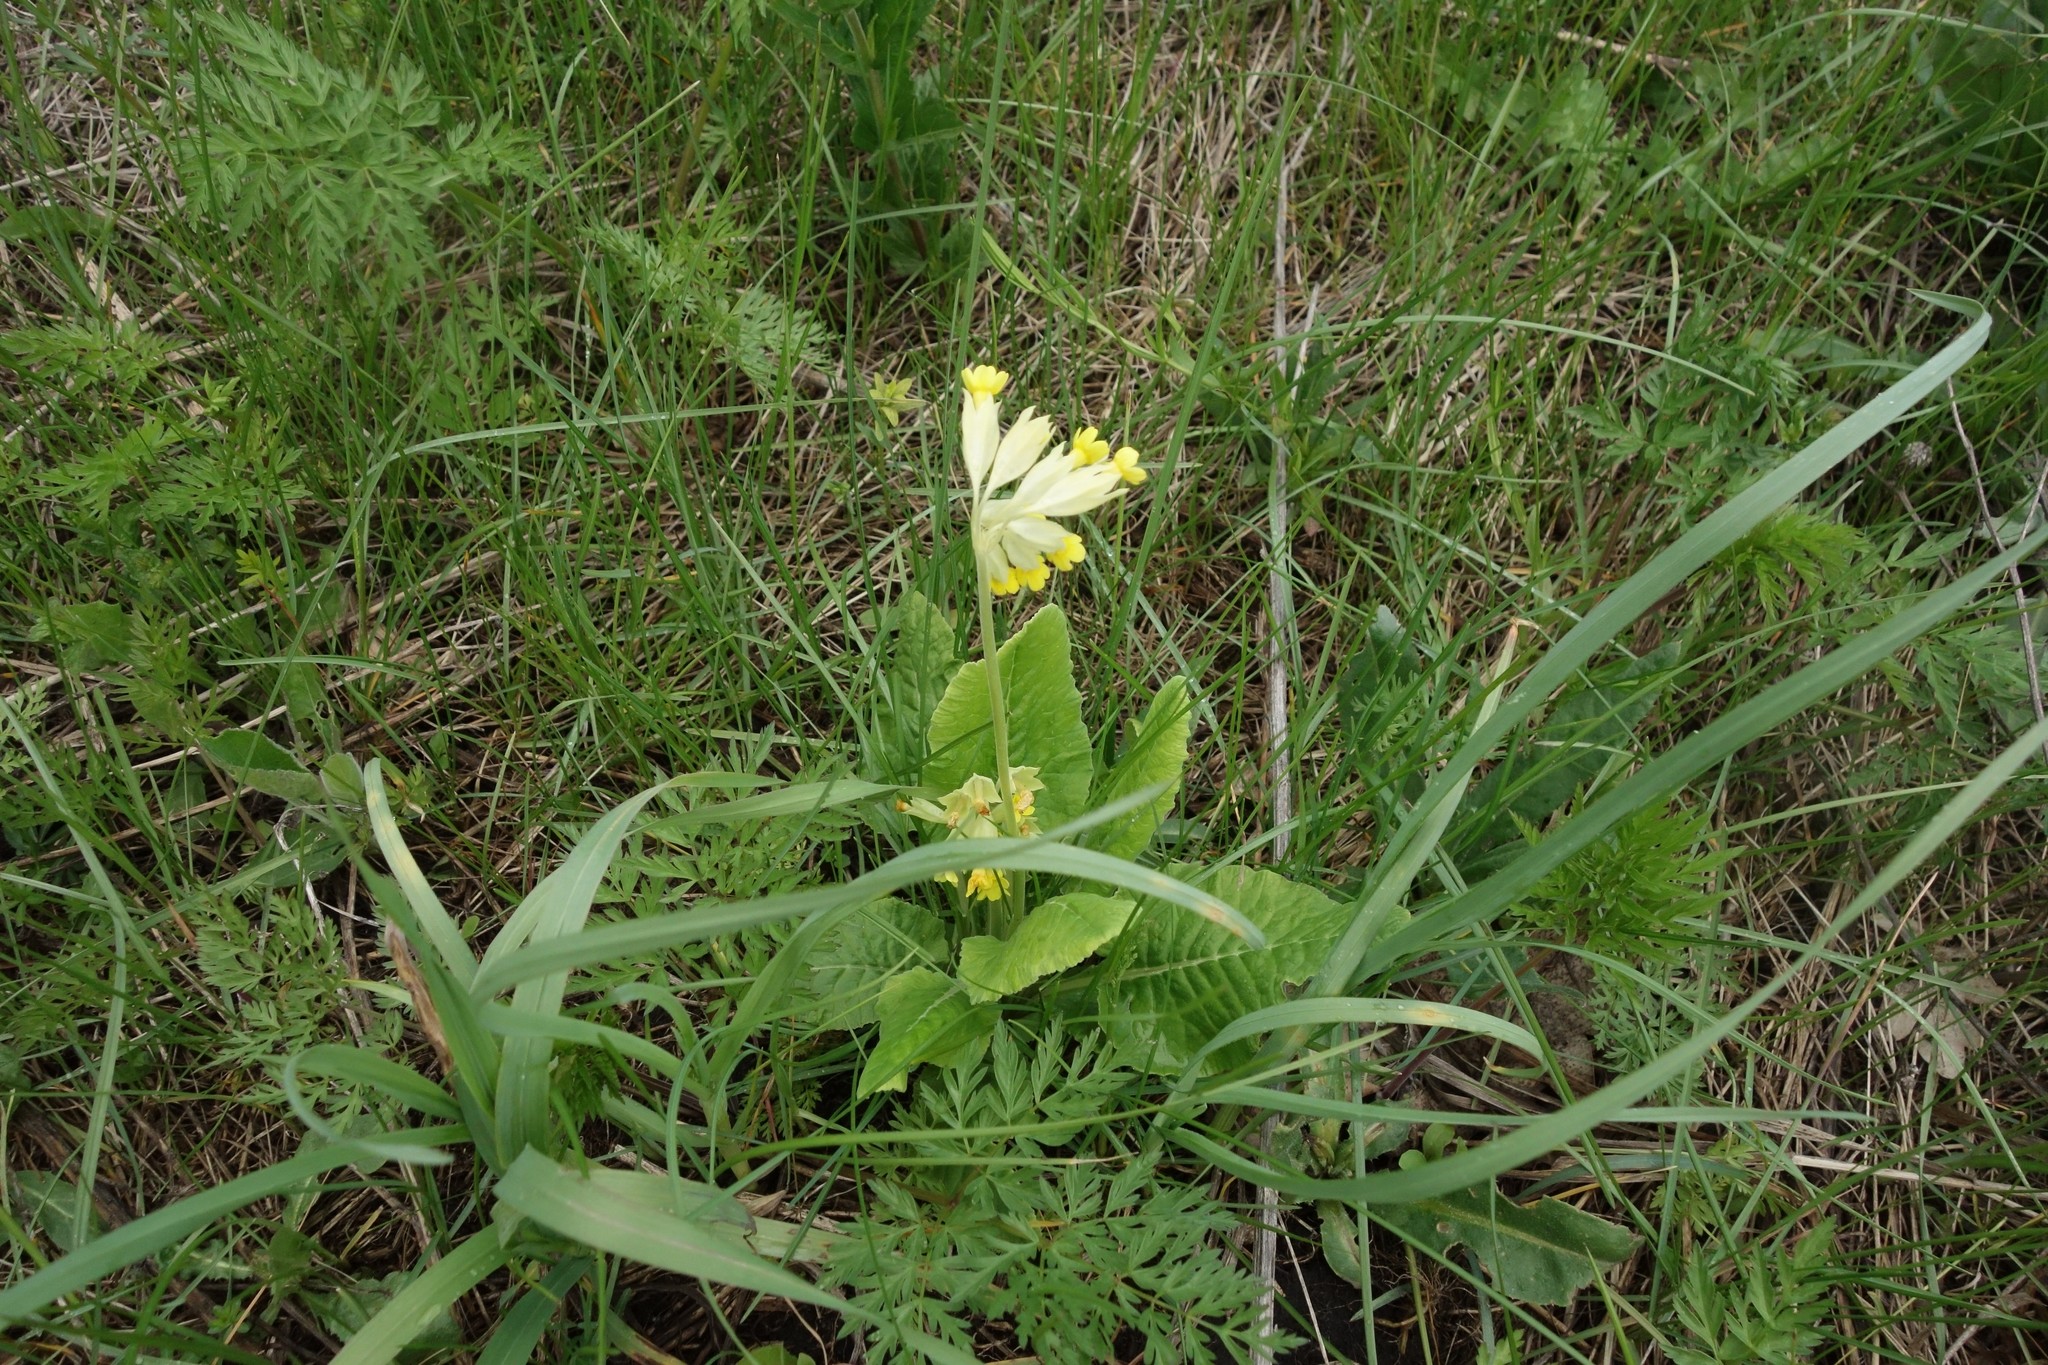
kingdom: Plantae
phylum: Tracheophyta
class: Magnoliopsida
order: Ericales
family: Primulaceae
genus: Primula
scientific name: Primula veris
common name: Cowslip
